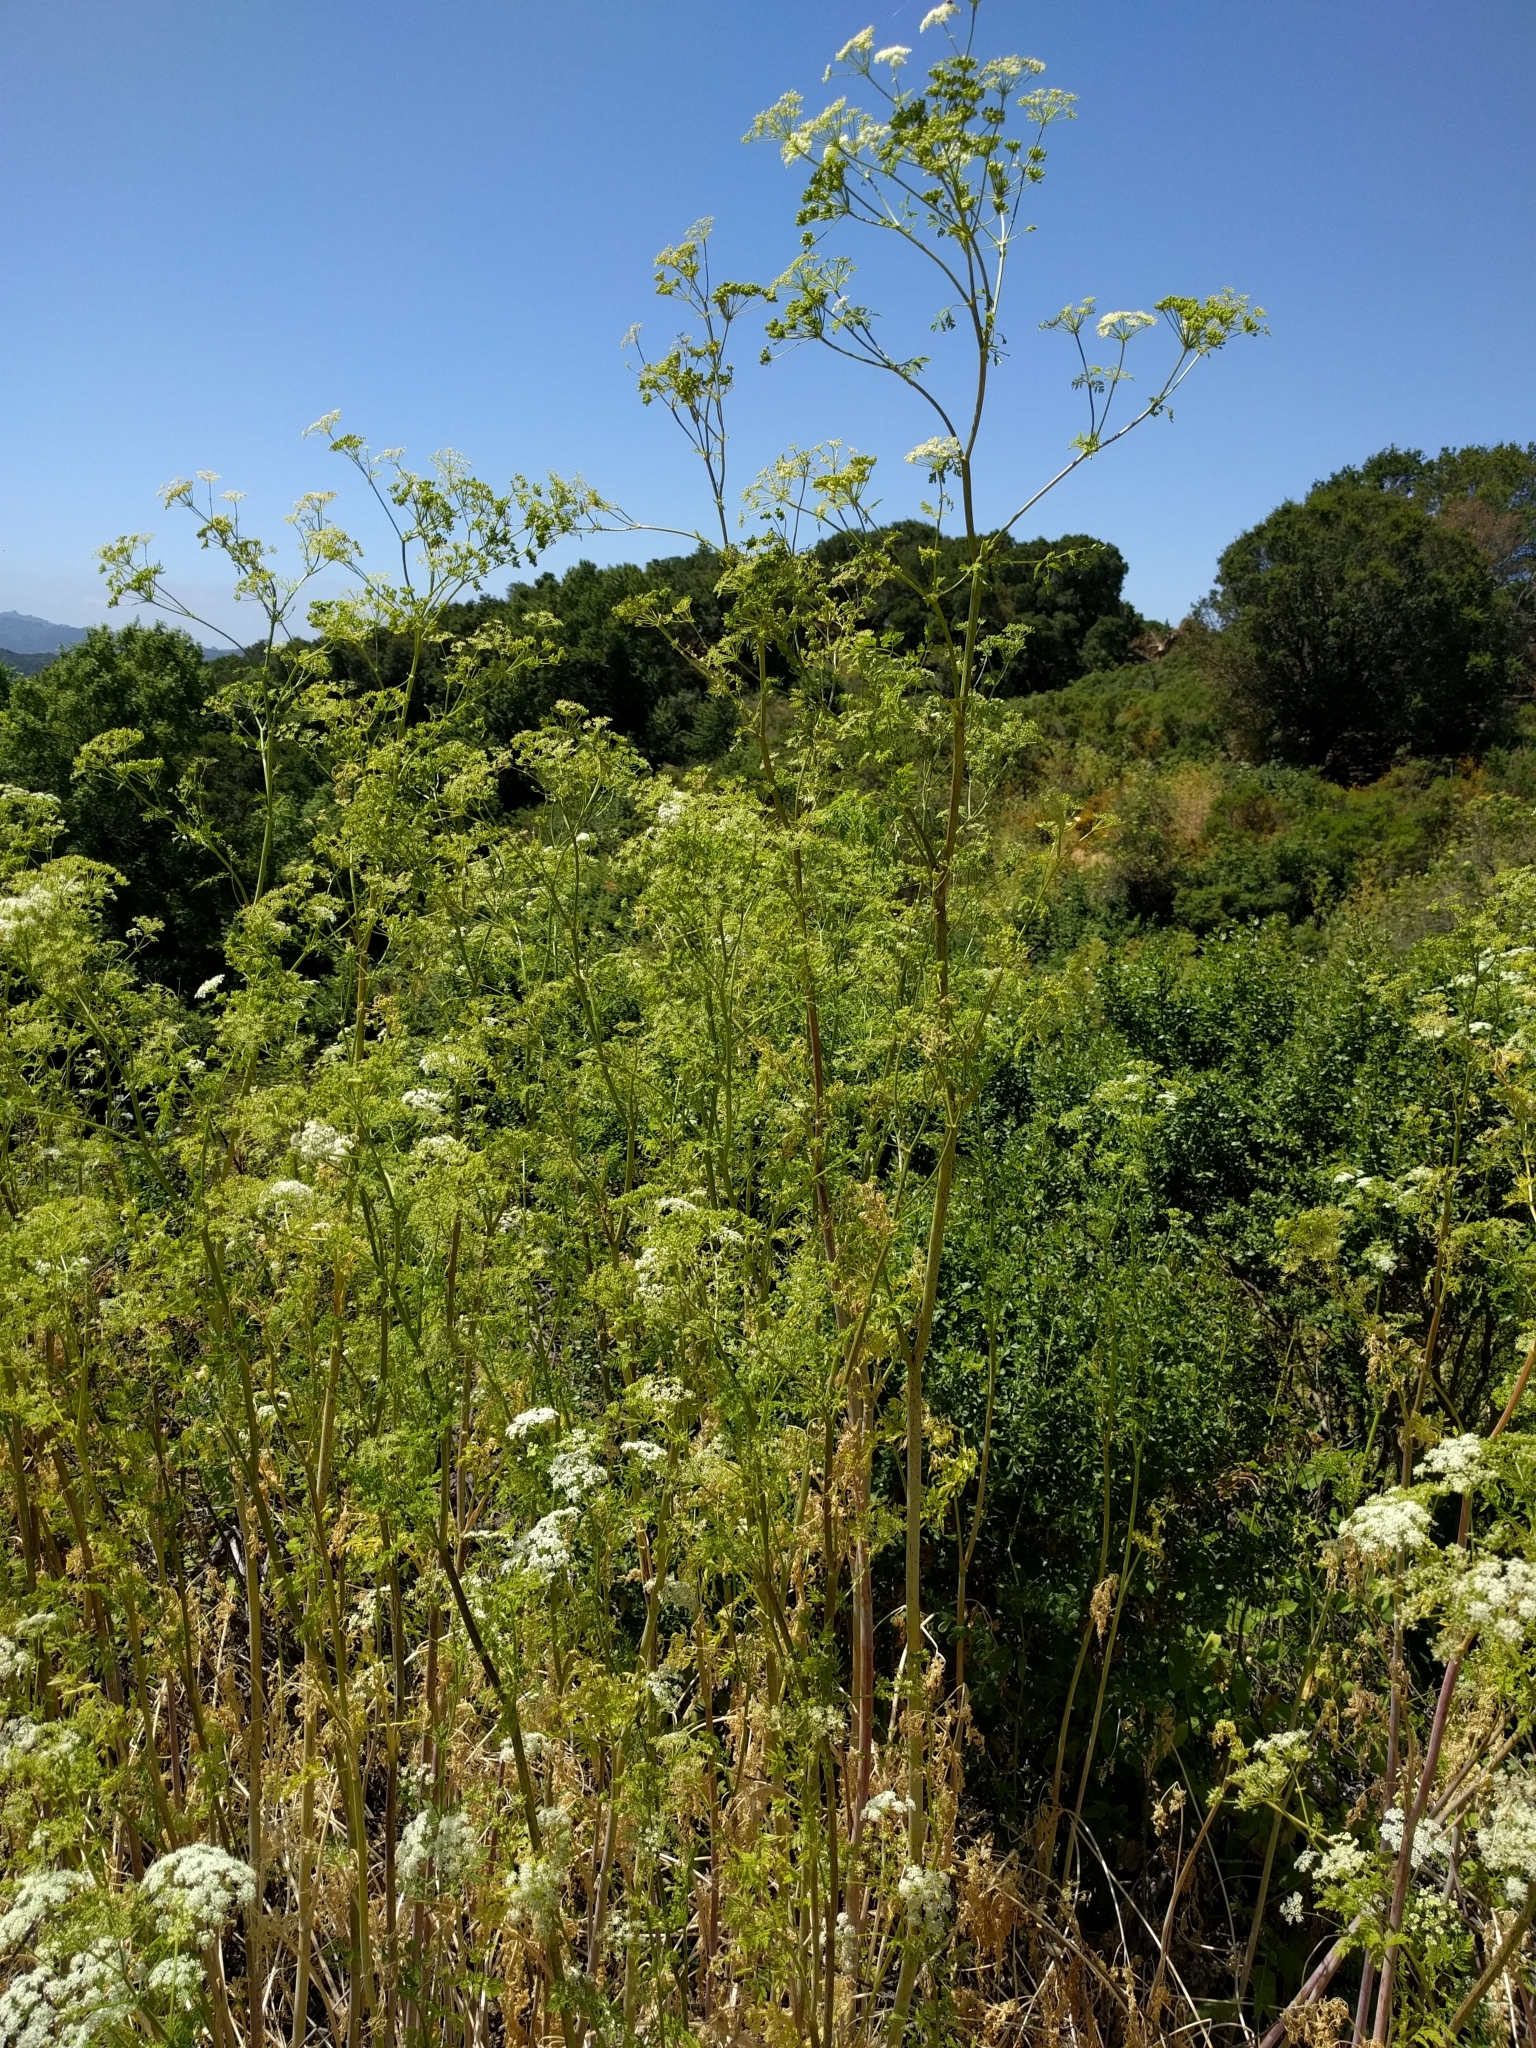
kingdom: Plantae
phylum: Tracheophyta
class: Magnoliopsida
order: Apiales
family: Apiaceae
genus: Conium
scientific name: Conium maculatum
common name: Hemlock
